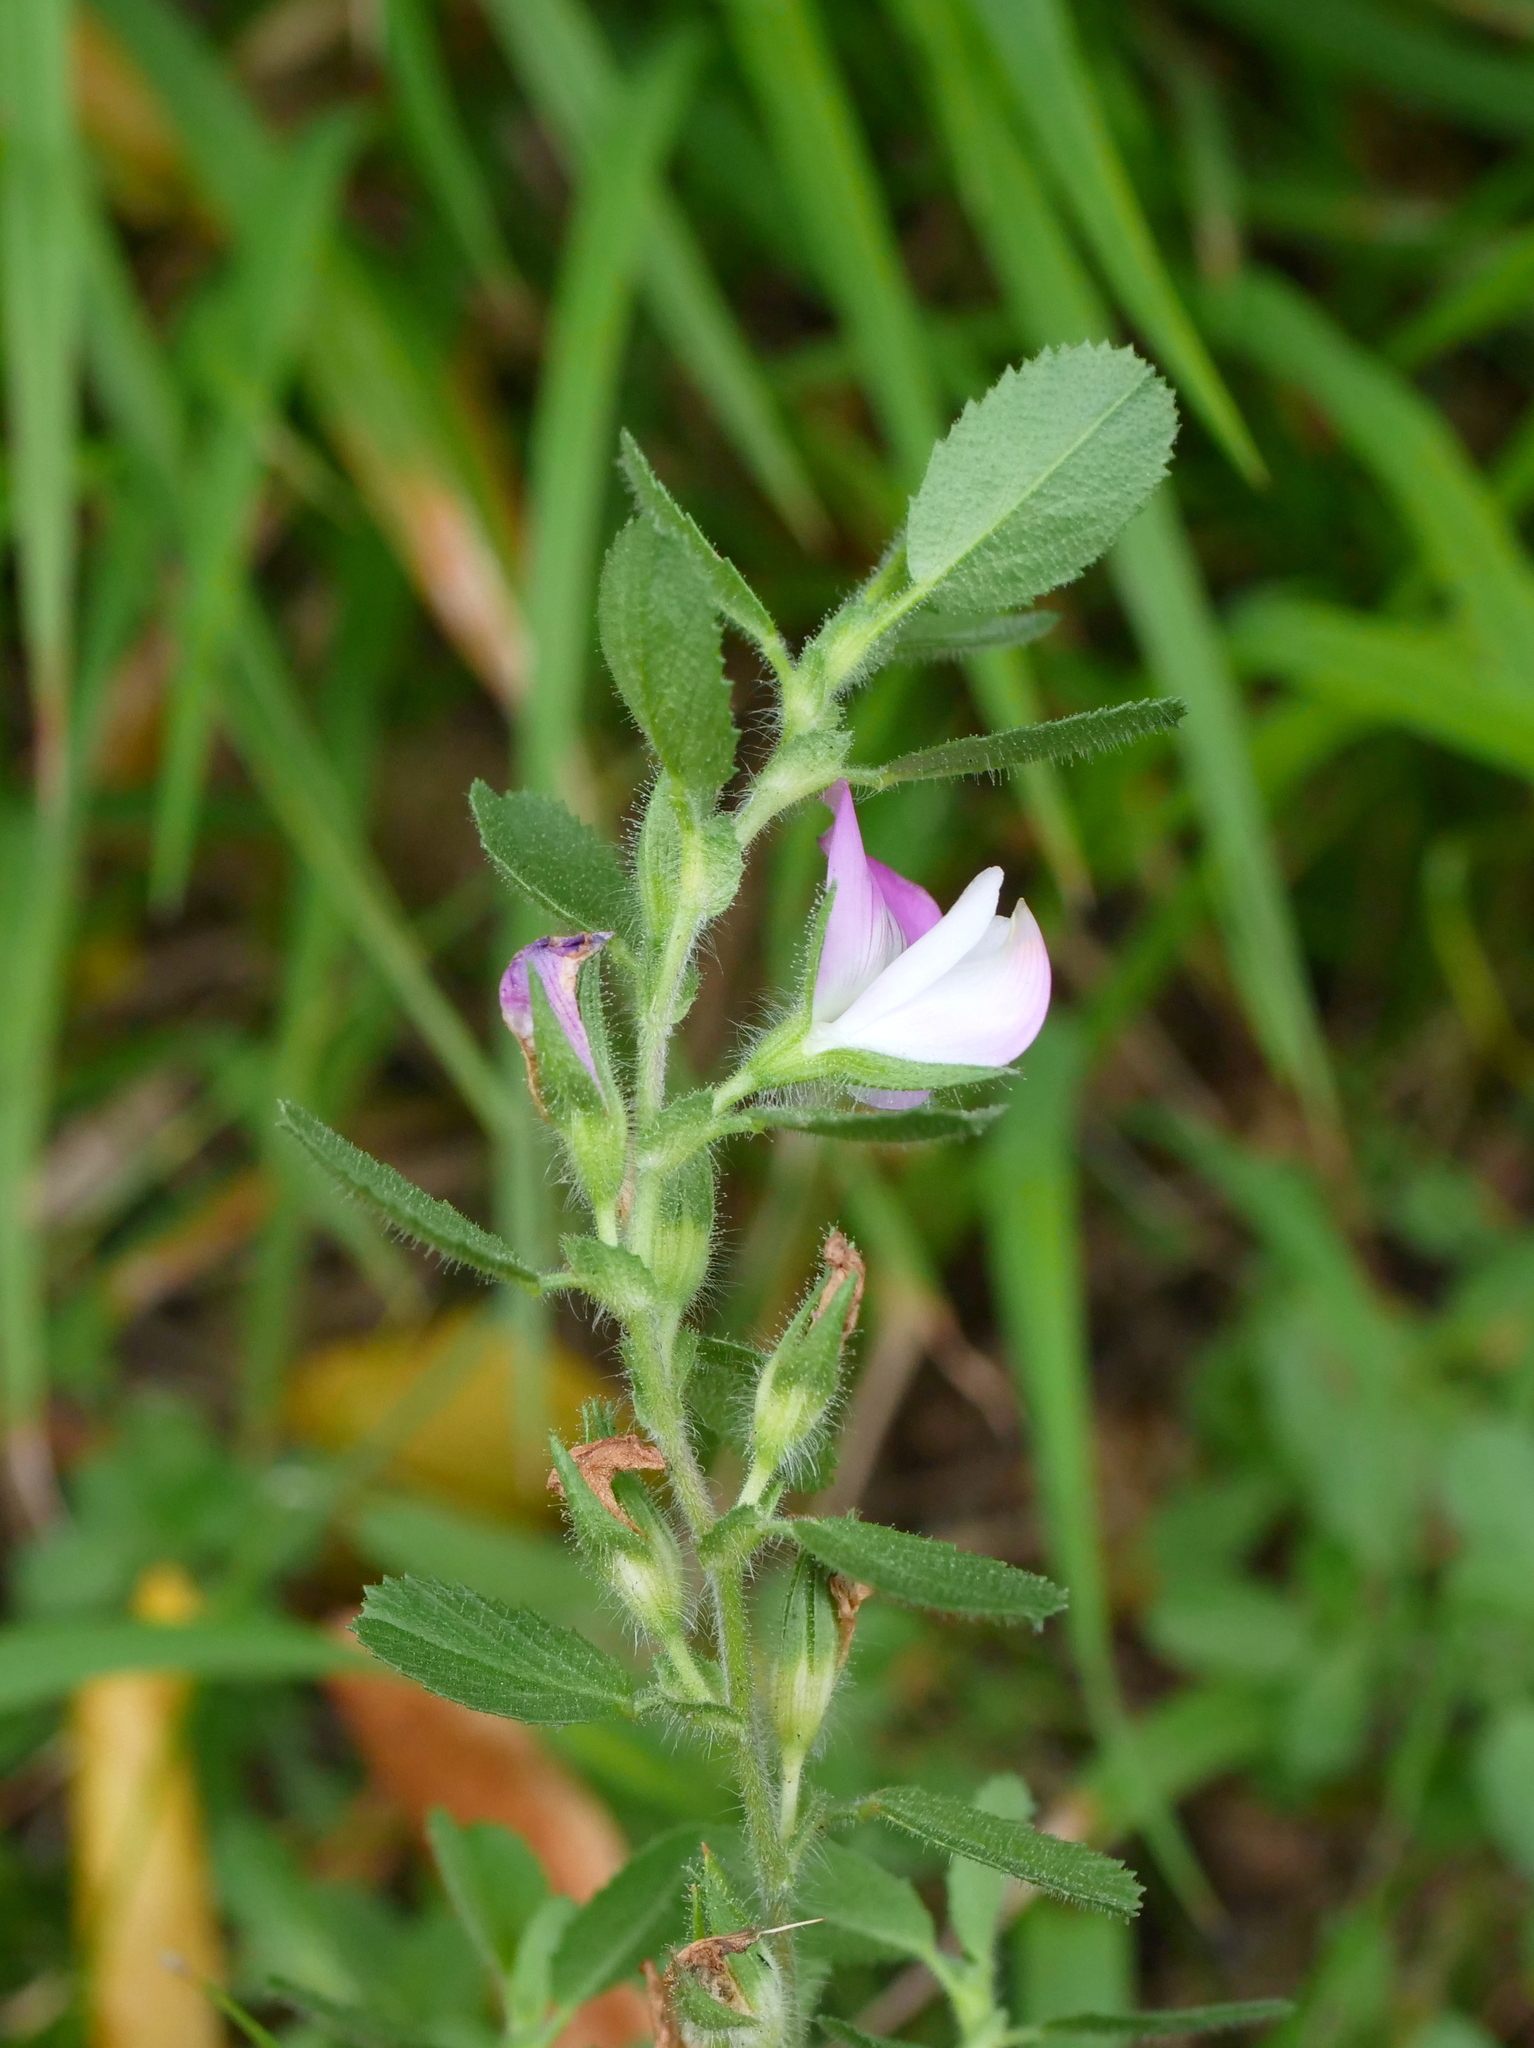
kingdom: Plantae
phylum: Tracheophyta
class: Magnoliopsida
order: Fabales
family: Fabaceae
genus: Ononis
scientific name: Ononis spinosa
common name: Spiny restharrow
